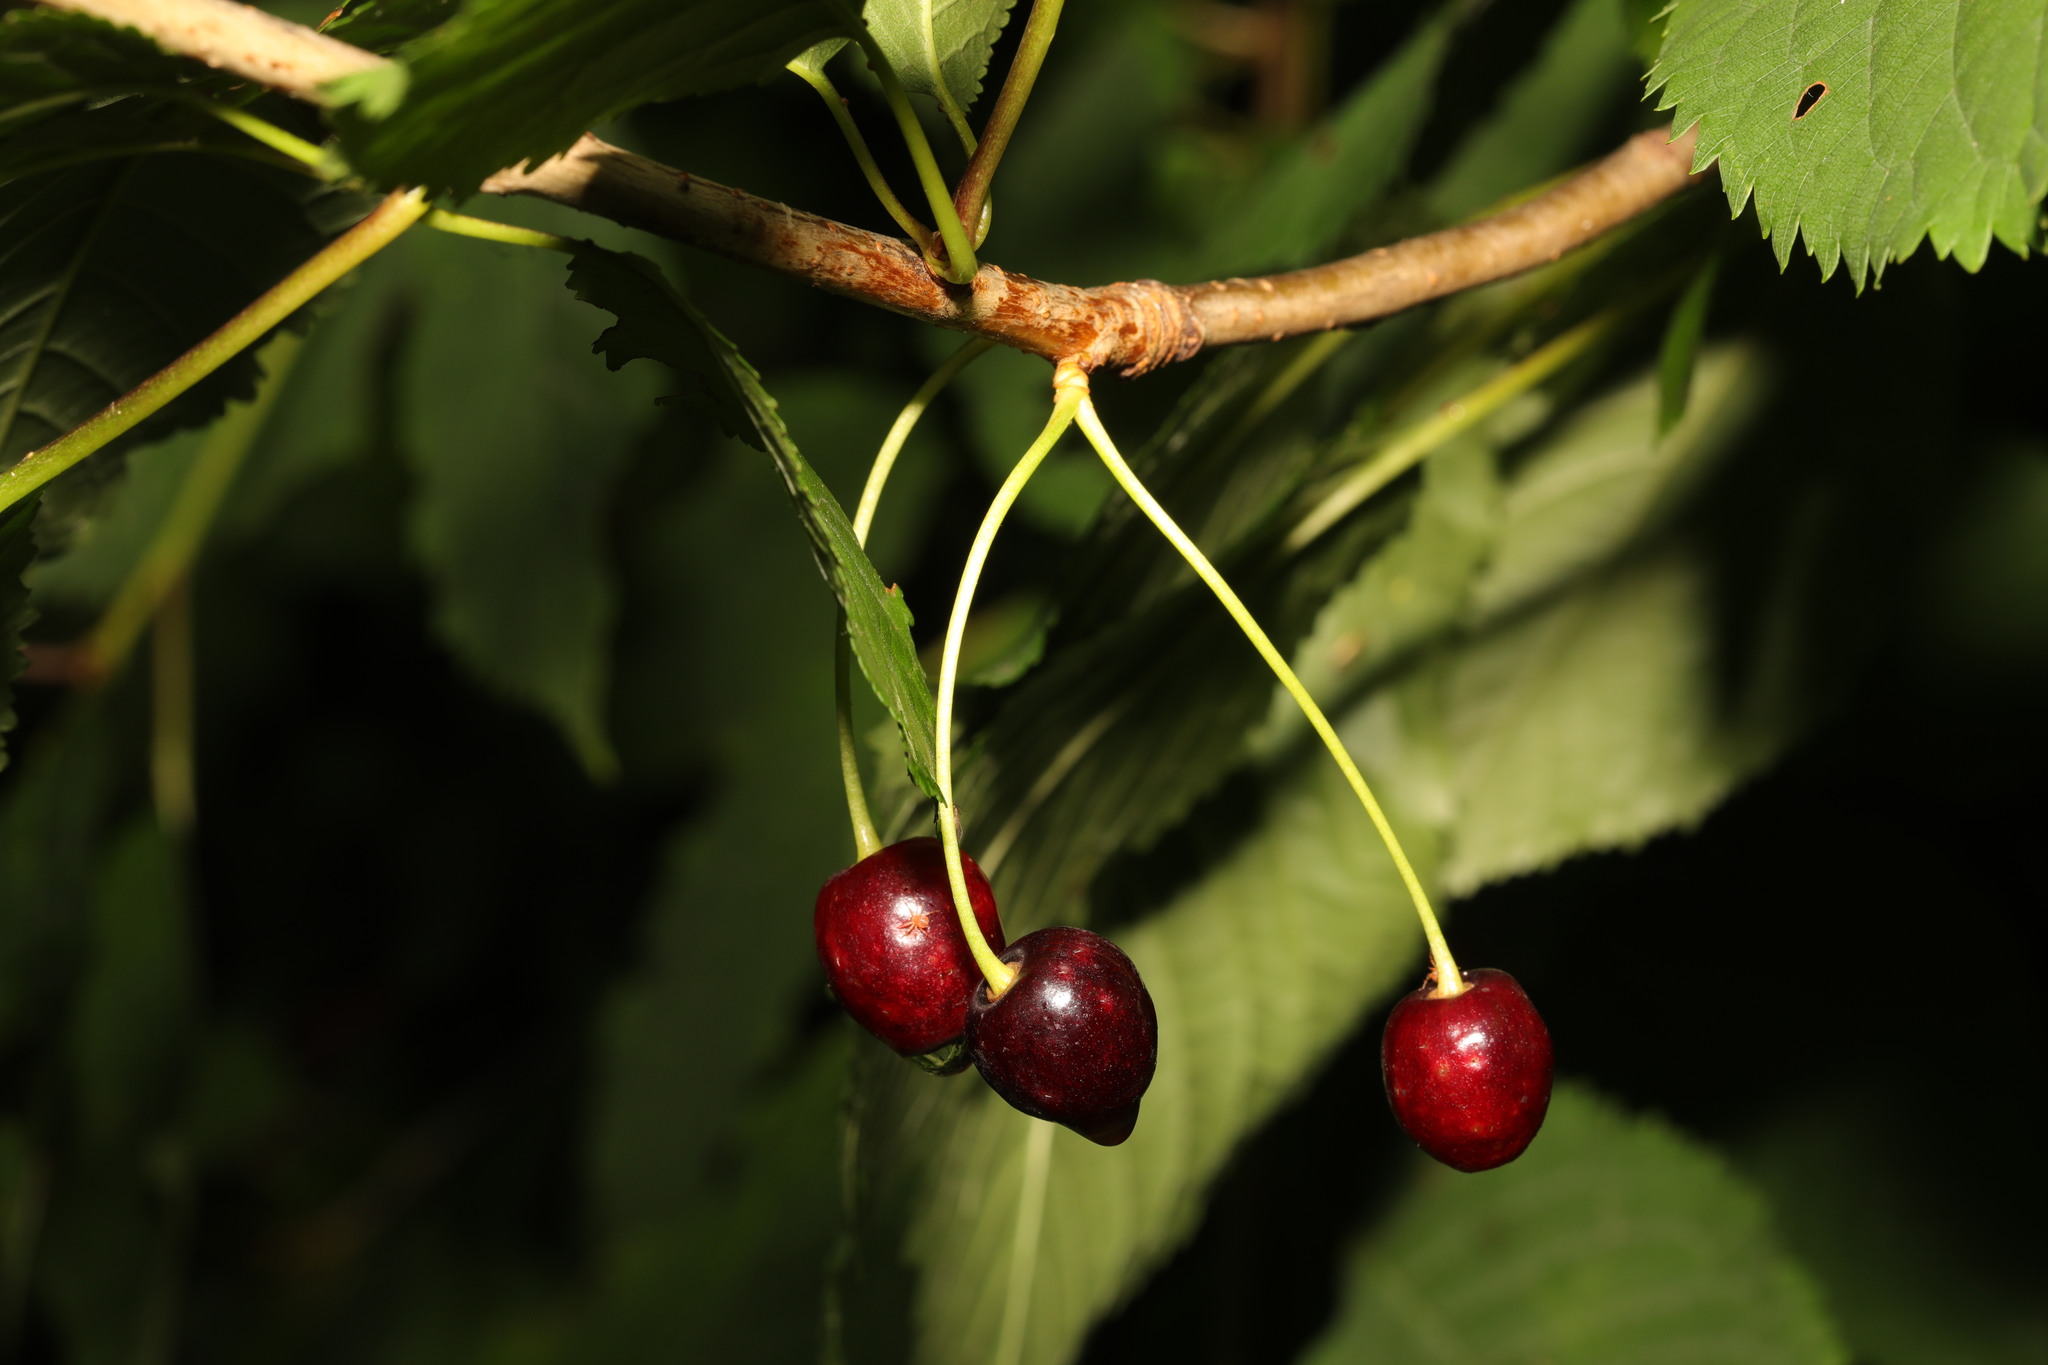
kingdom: Plantae
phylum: Tracheophyta
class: Magnoliopsida
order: Rosales
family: Rosaceae
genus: Prunus
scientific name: Prunus avium
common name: Sweet cherry
